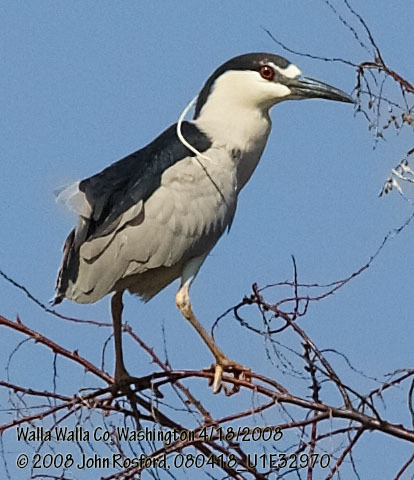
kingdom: Animalia
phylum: Chordata
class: Aves
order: Pelecaniformes
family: Ardeidae
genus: Nycticorax
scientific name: Nycticorax nycticorax
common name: Black-crowned night heron
